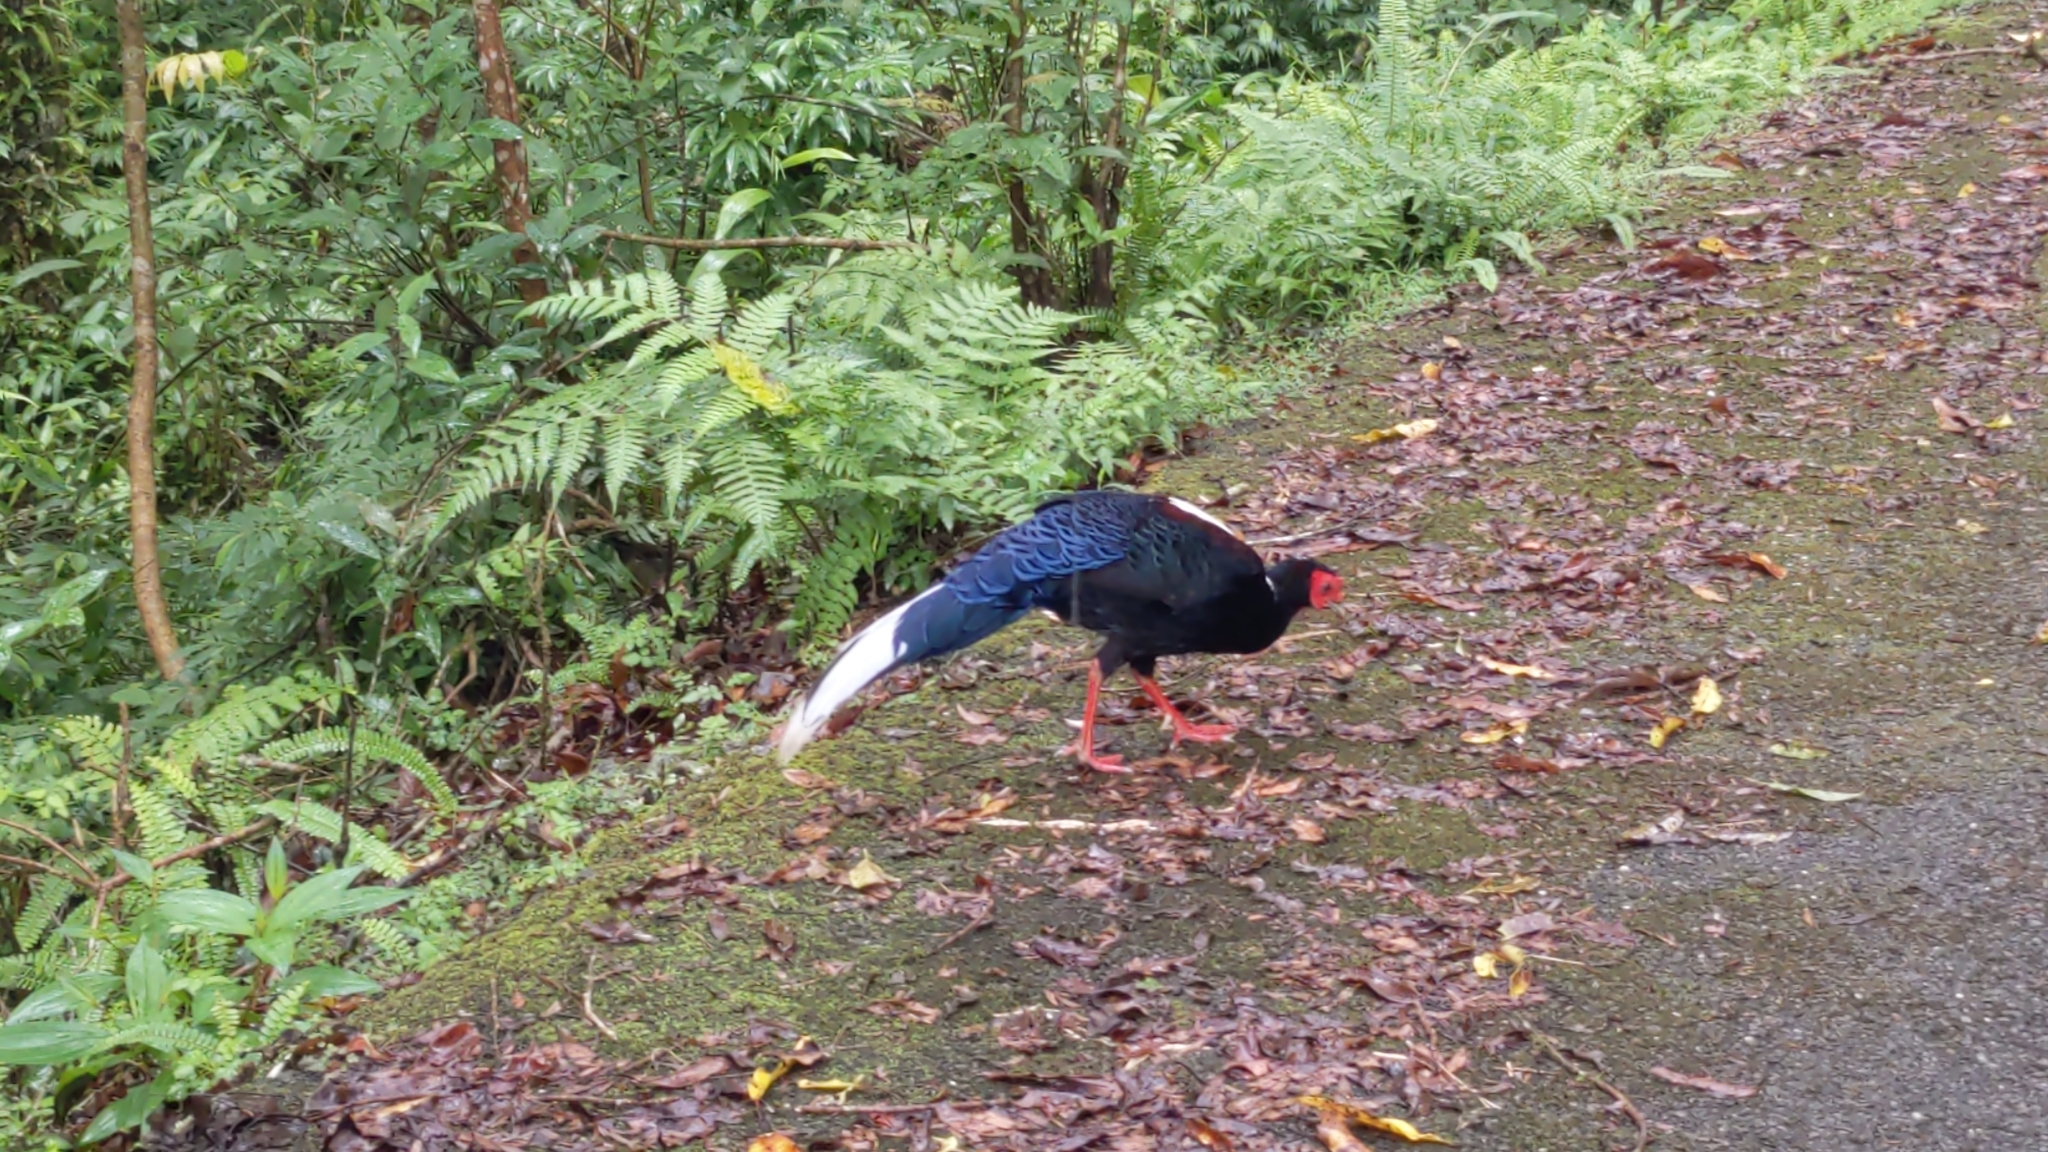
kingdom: Animalia
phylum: Chordata
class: Aves
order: Galliformes
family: Phasianidae
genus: Lophura
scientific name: Lophura swinhoii
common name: Swinhoe's pheasant
